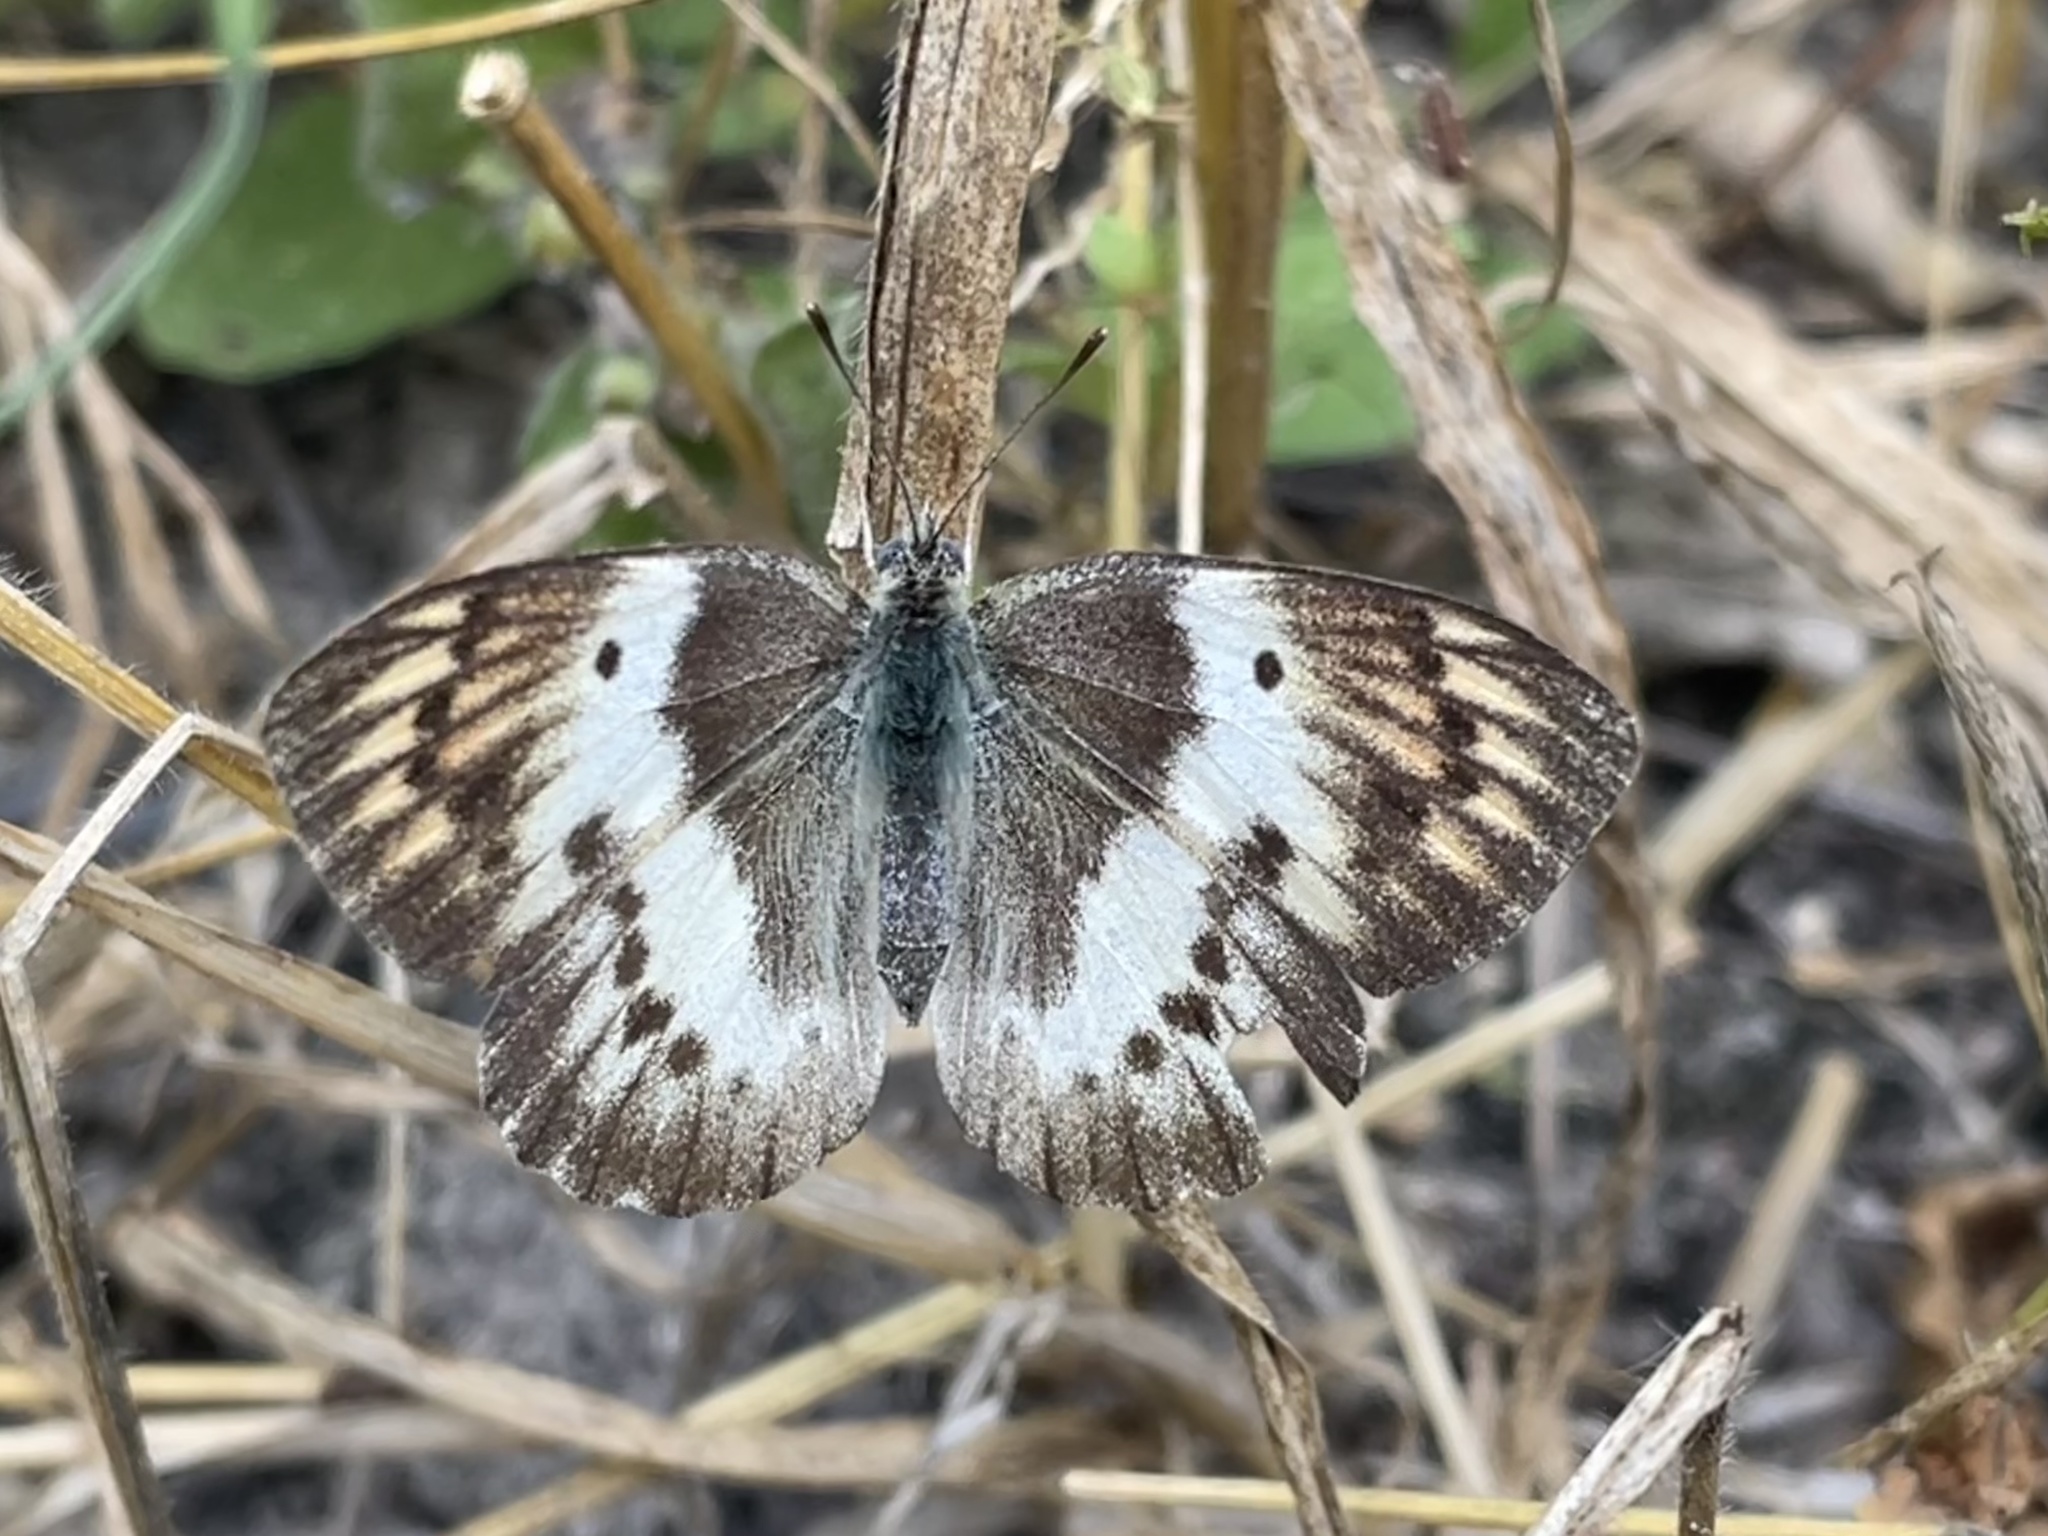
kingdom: Animalia
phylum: Arthropoda
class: Insecta
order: Lepidoptera
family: Pieridae
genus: Colotis
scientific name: Colotis annae
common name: Scarlet tip
